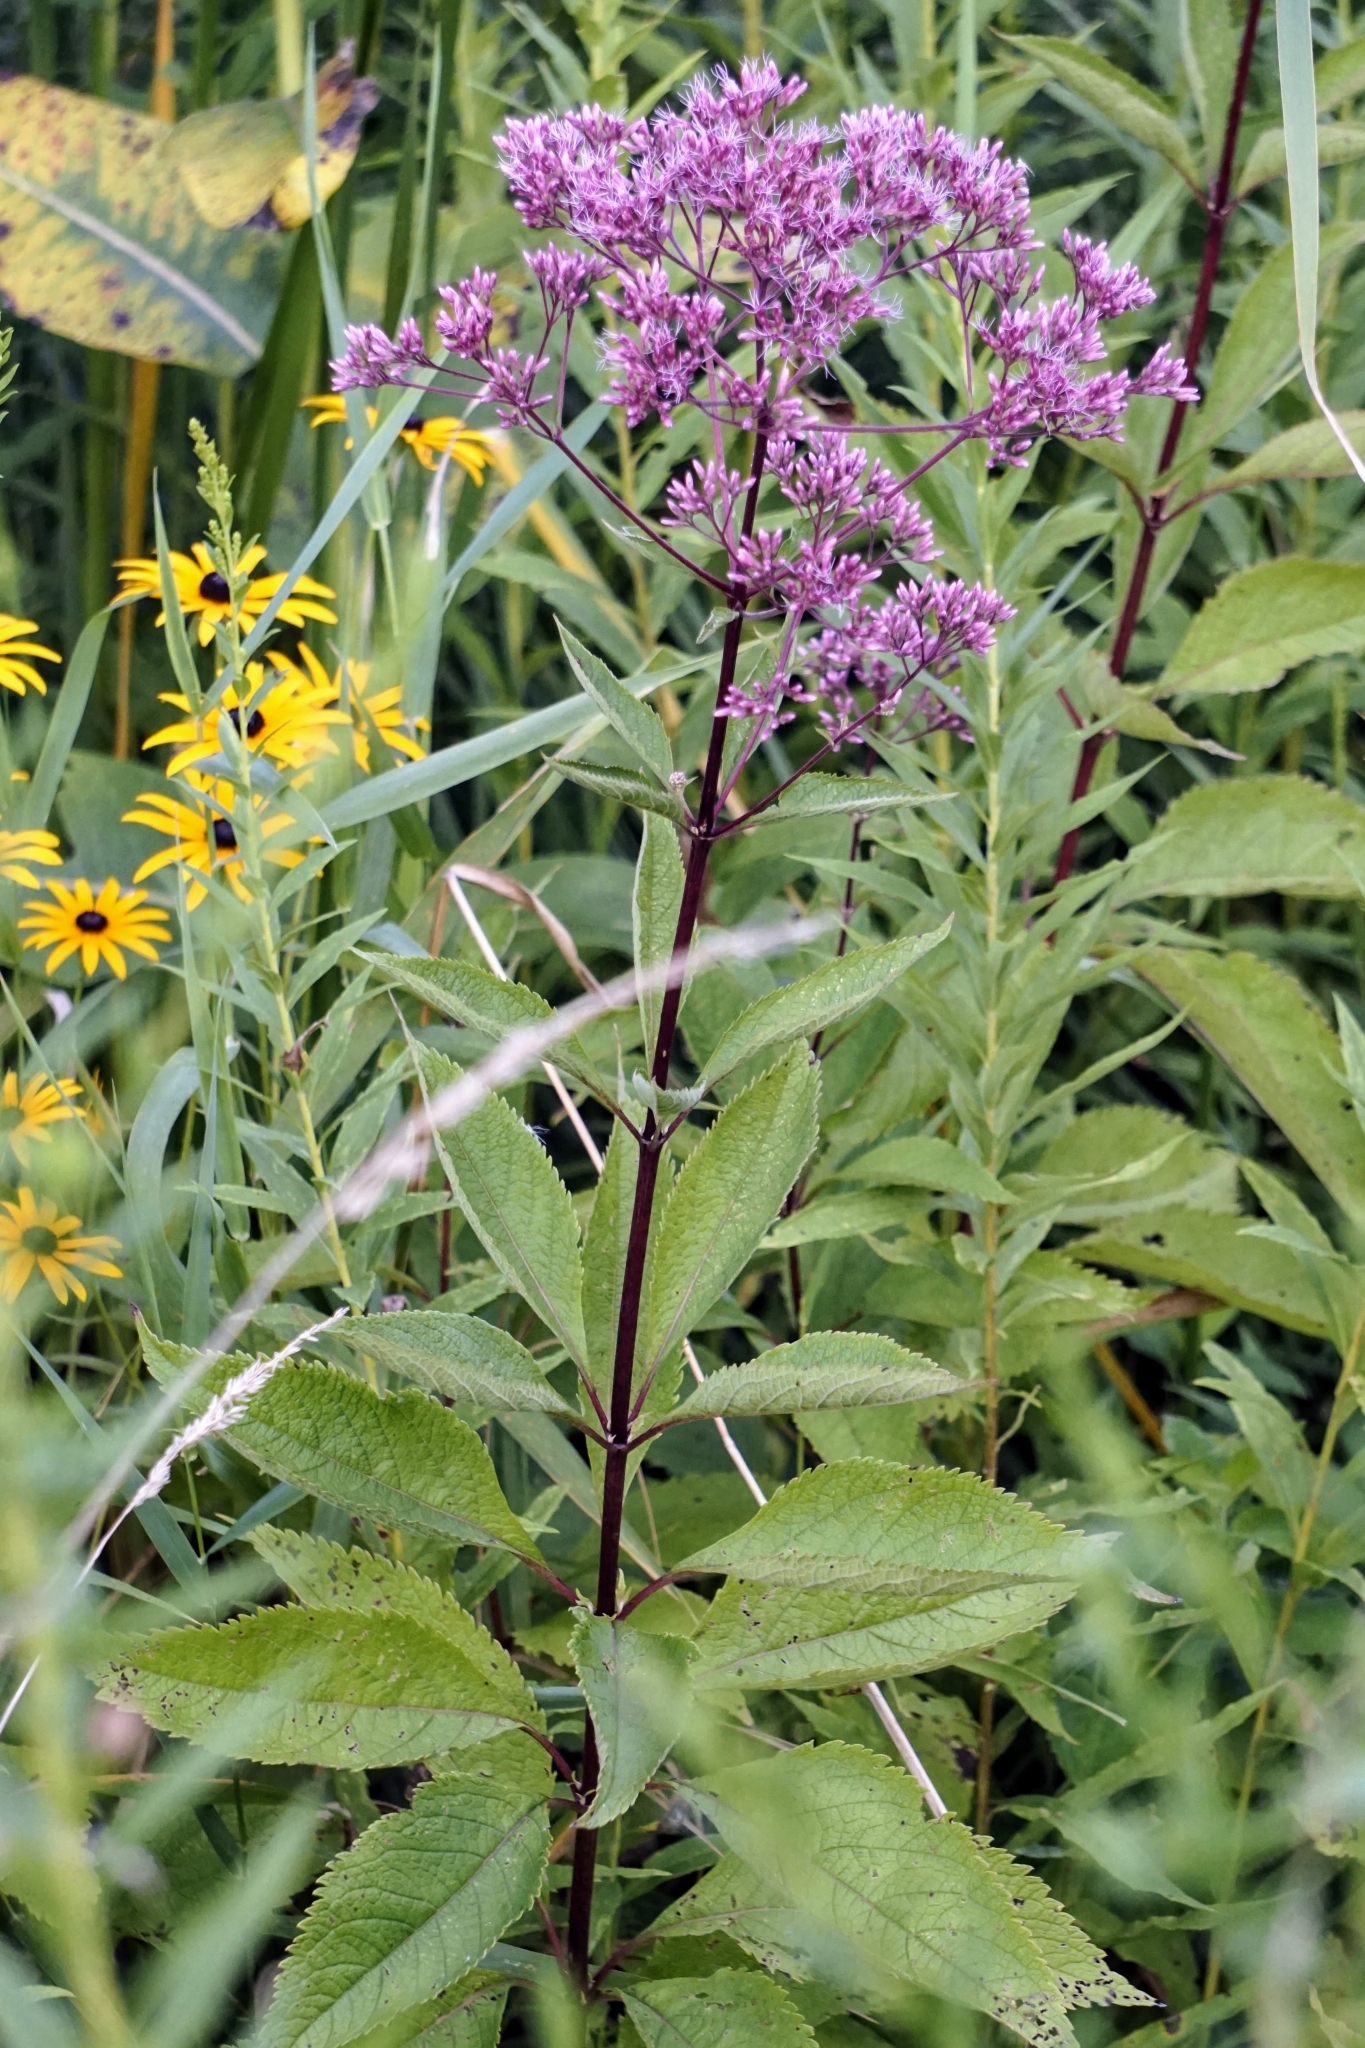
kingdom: Plantae
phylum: Tracheophyta
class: Magnoliopsida
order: Asterales
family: Asteraceae
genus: Eutrochium
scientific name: Eutrochium maculatum
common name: Spotted joe pye weed
